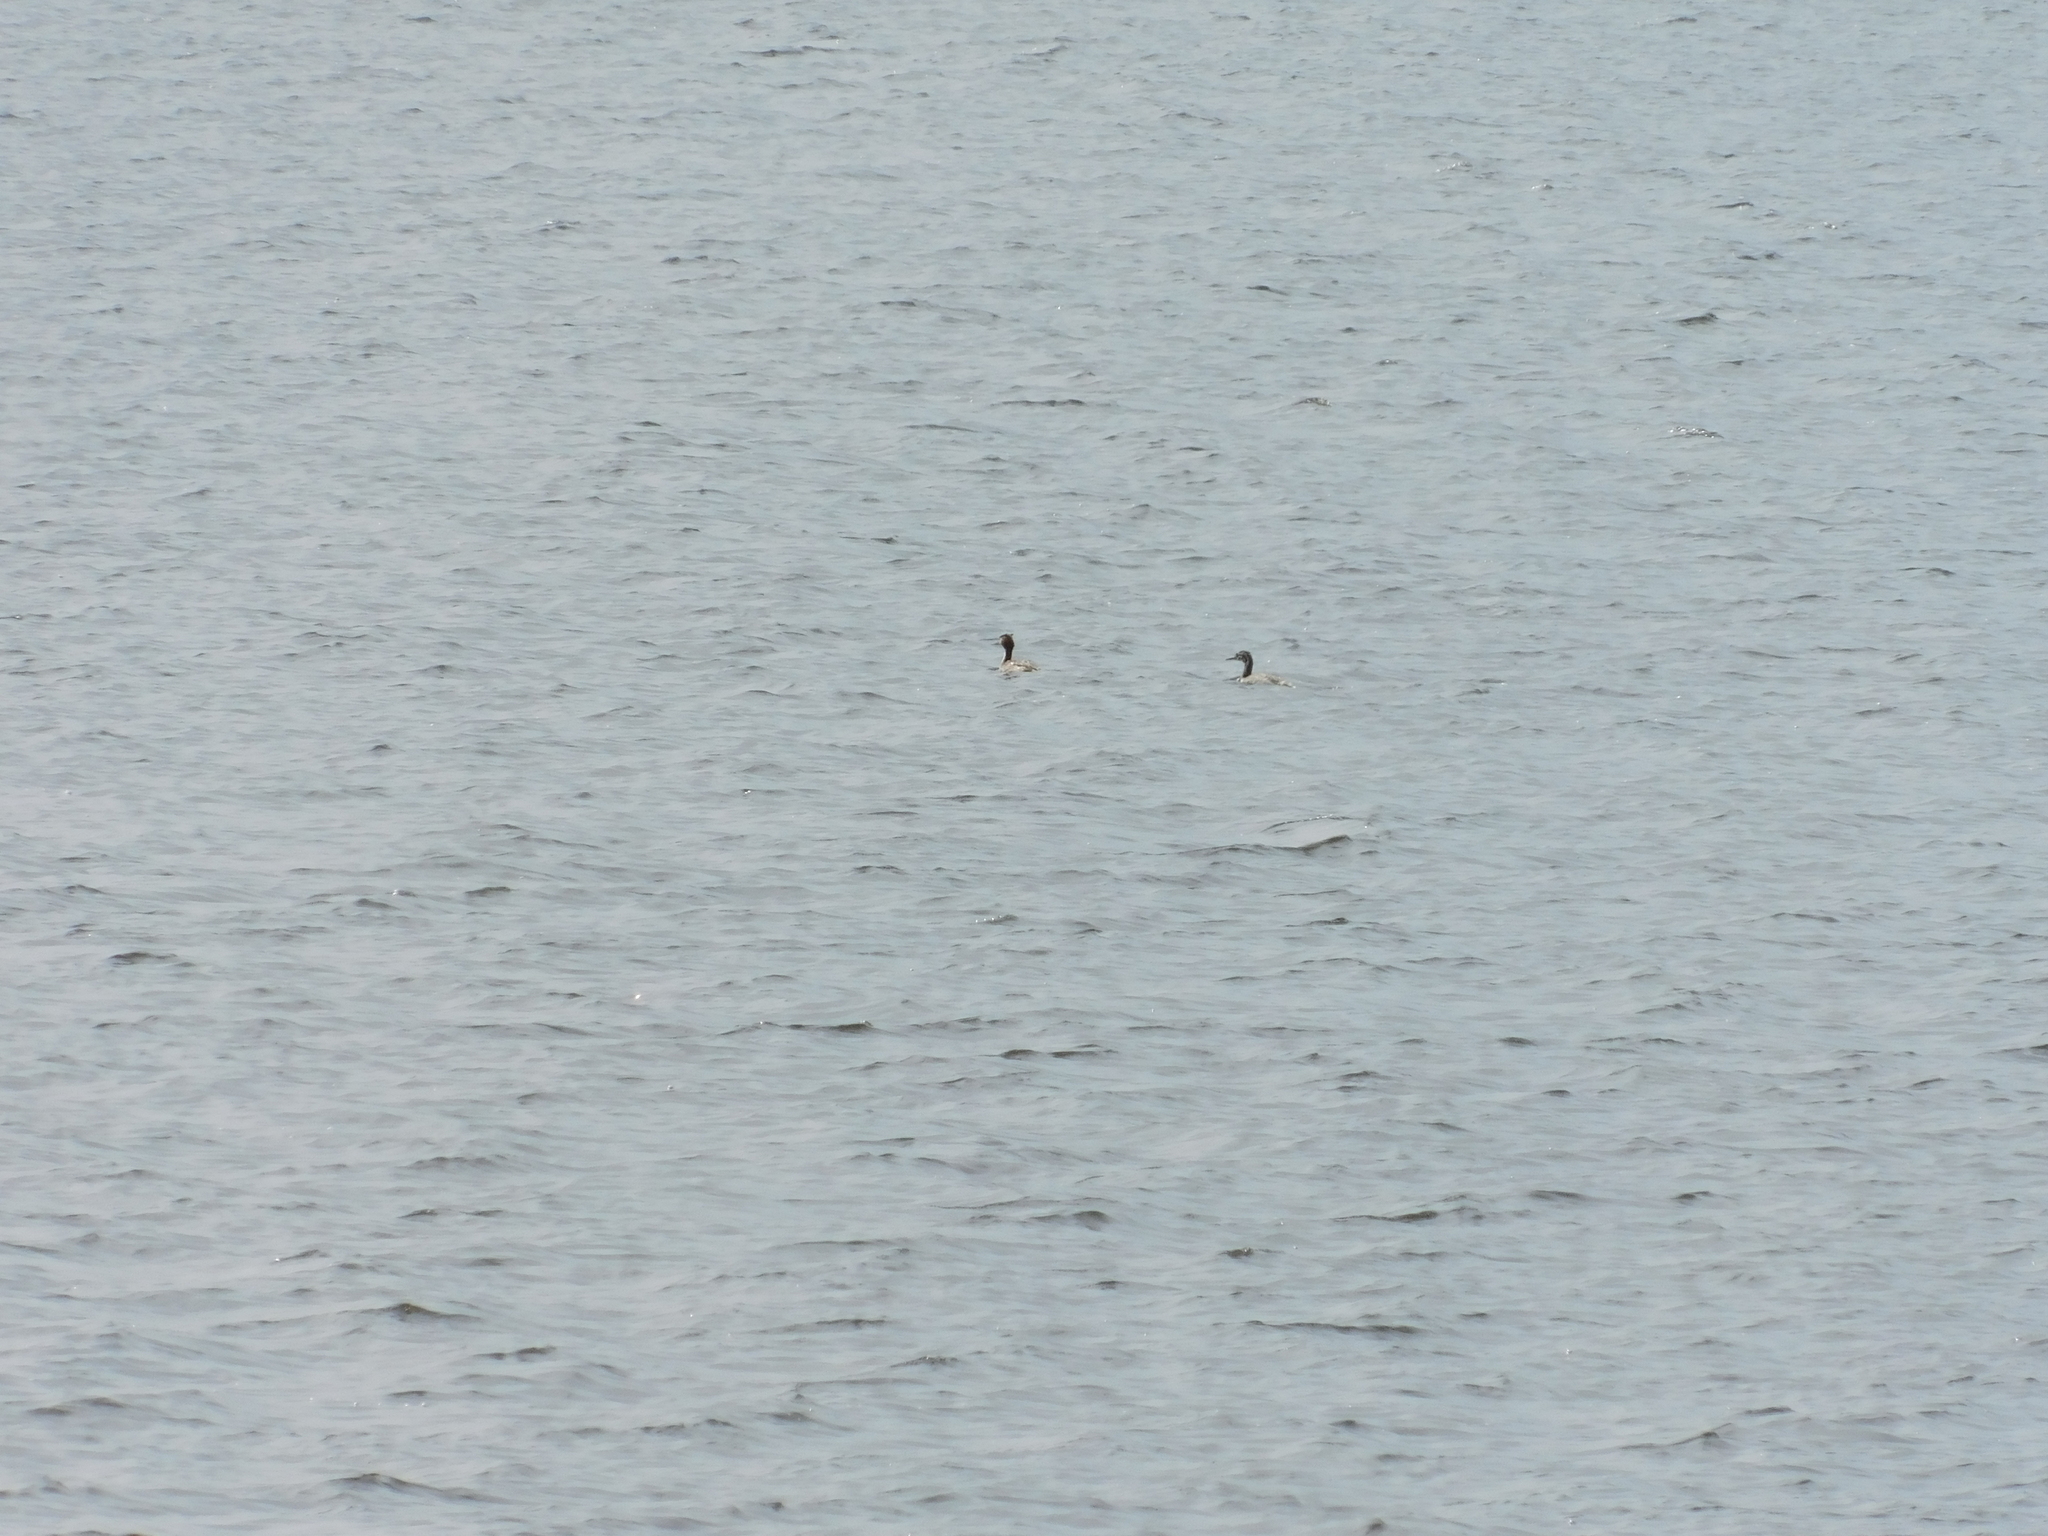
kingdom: Animalia
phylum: Chordata
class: Aves
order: Podicipediformes
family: Podicipedidae
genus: Podiceps
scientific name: Podiceps cristatus
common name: Great crested grebe
